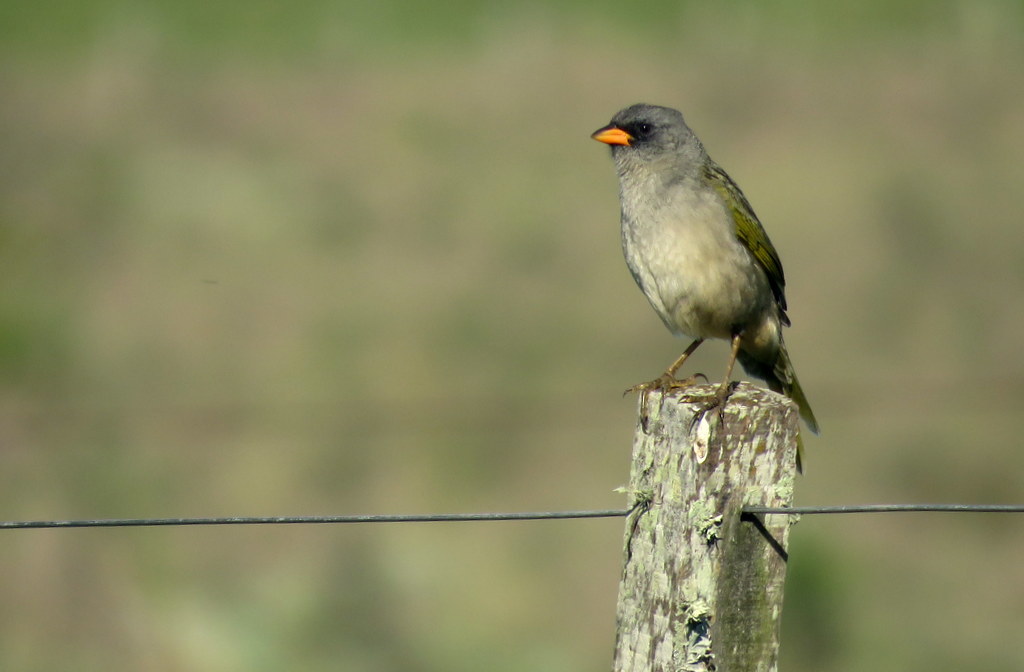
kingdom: Animalia
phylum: Chordata
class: Aves
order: Passeriformes
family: Thraupidae
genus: Embernagra
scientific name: Embernagra platensis
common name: Pampa finch
